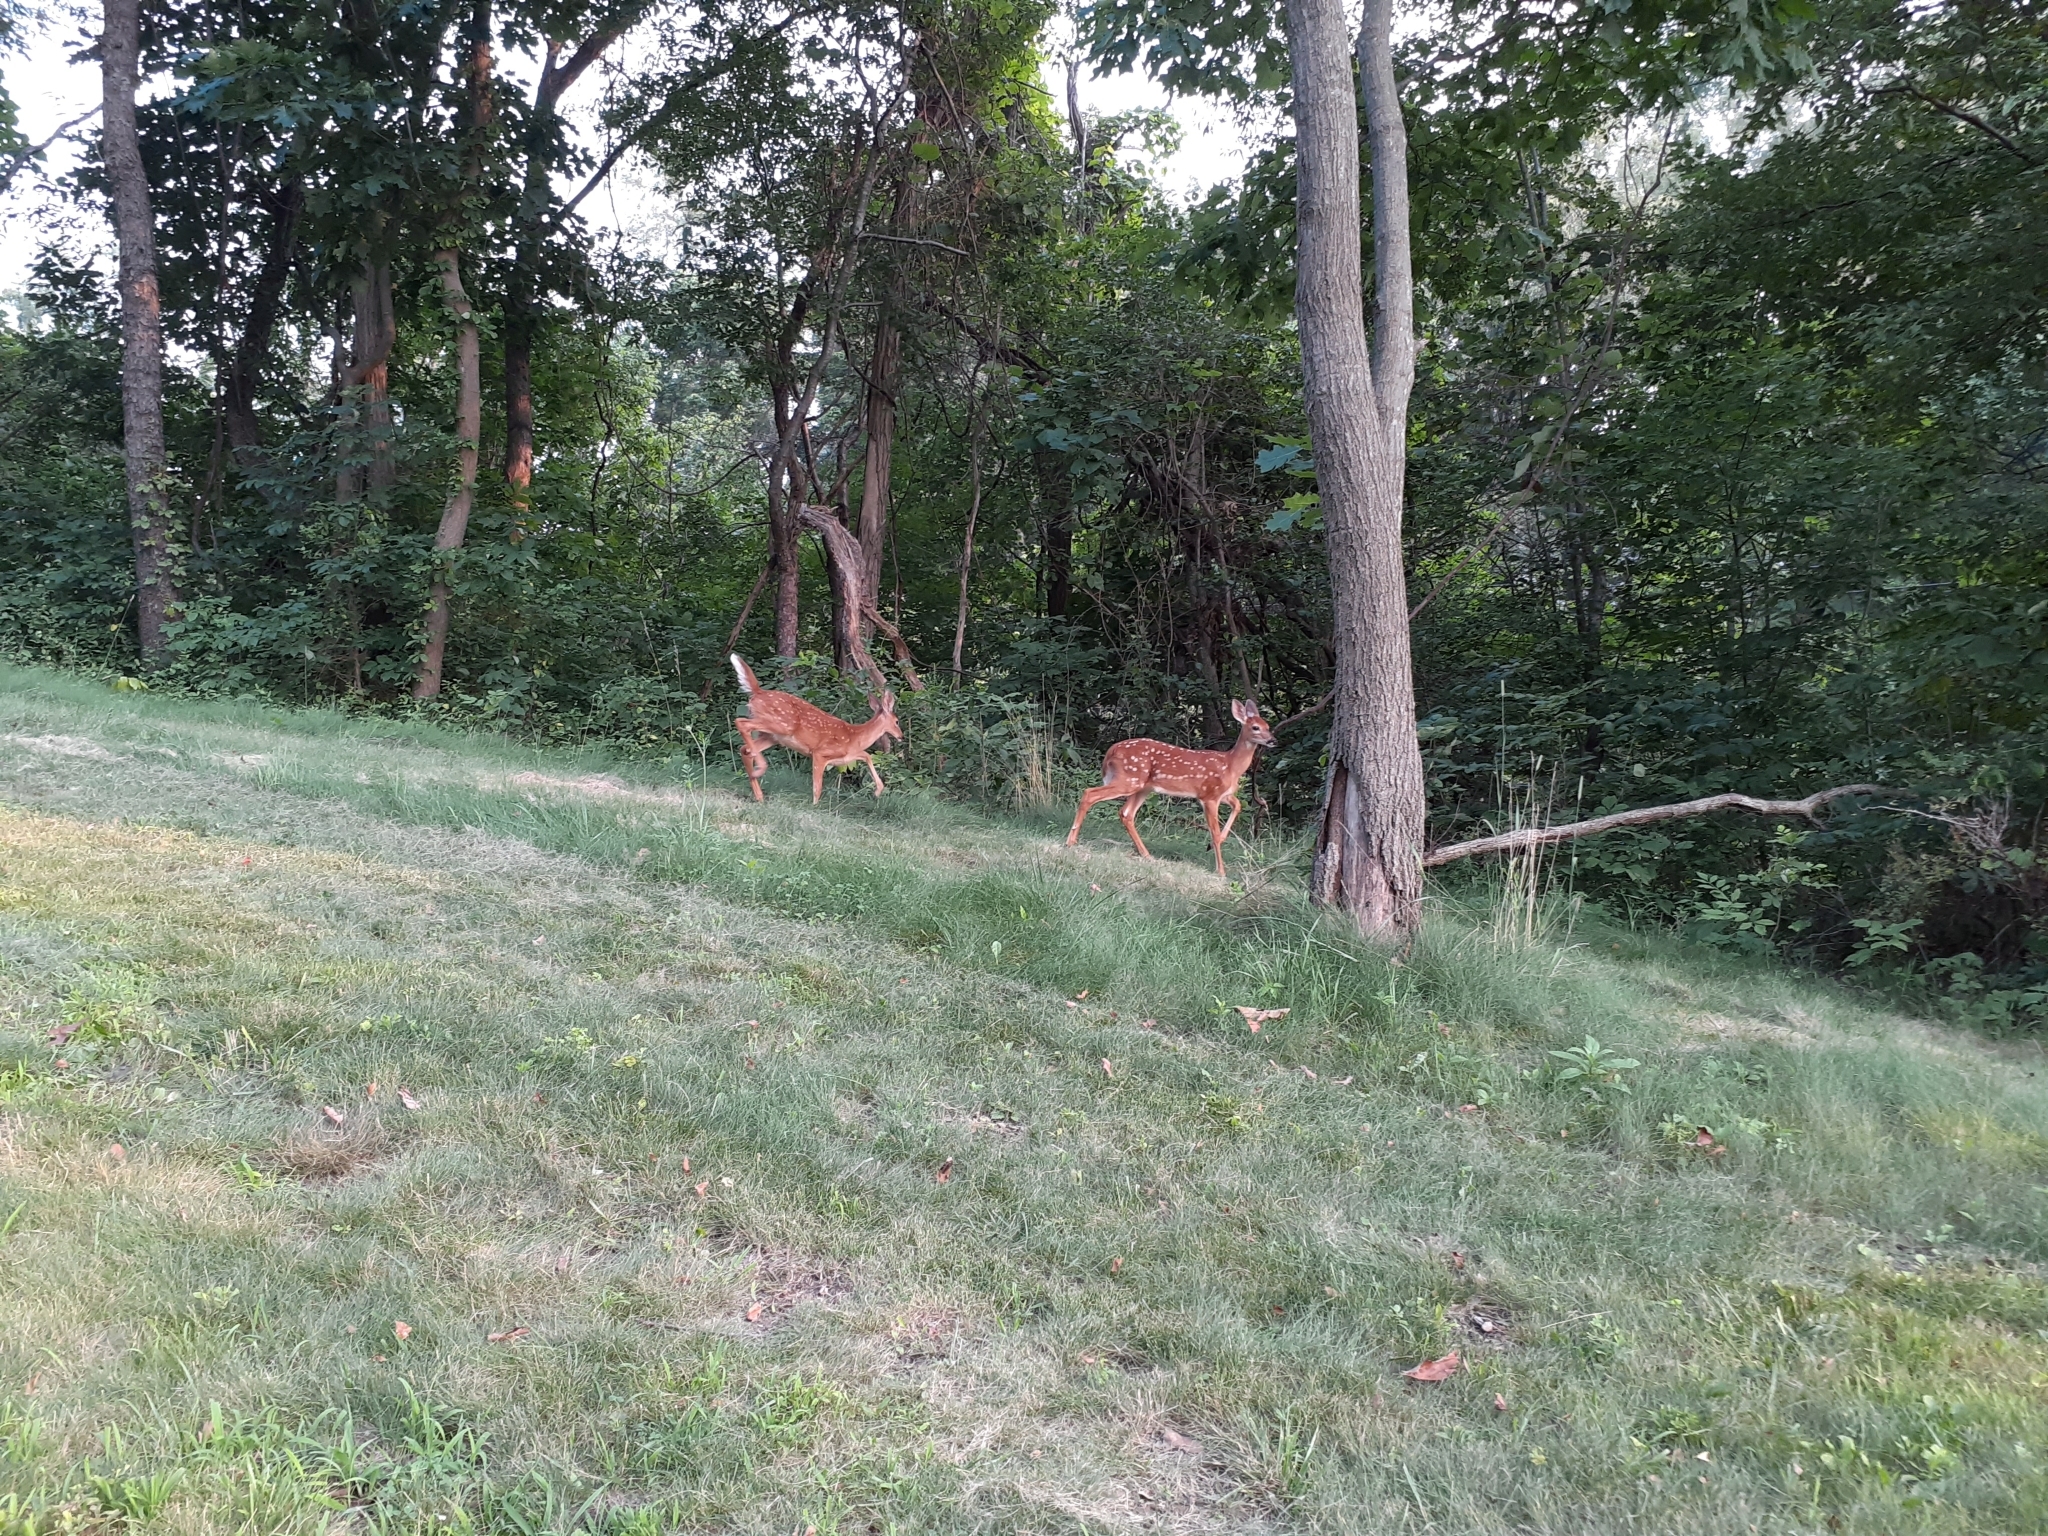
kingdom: Animalia
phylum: Chordata
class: Mammalia
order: Artiodactyla
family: Cervidae
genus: Odocoileus
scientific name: Odocoileus virginianus
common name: White-tailed deer
